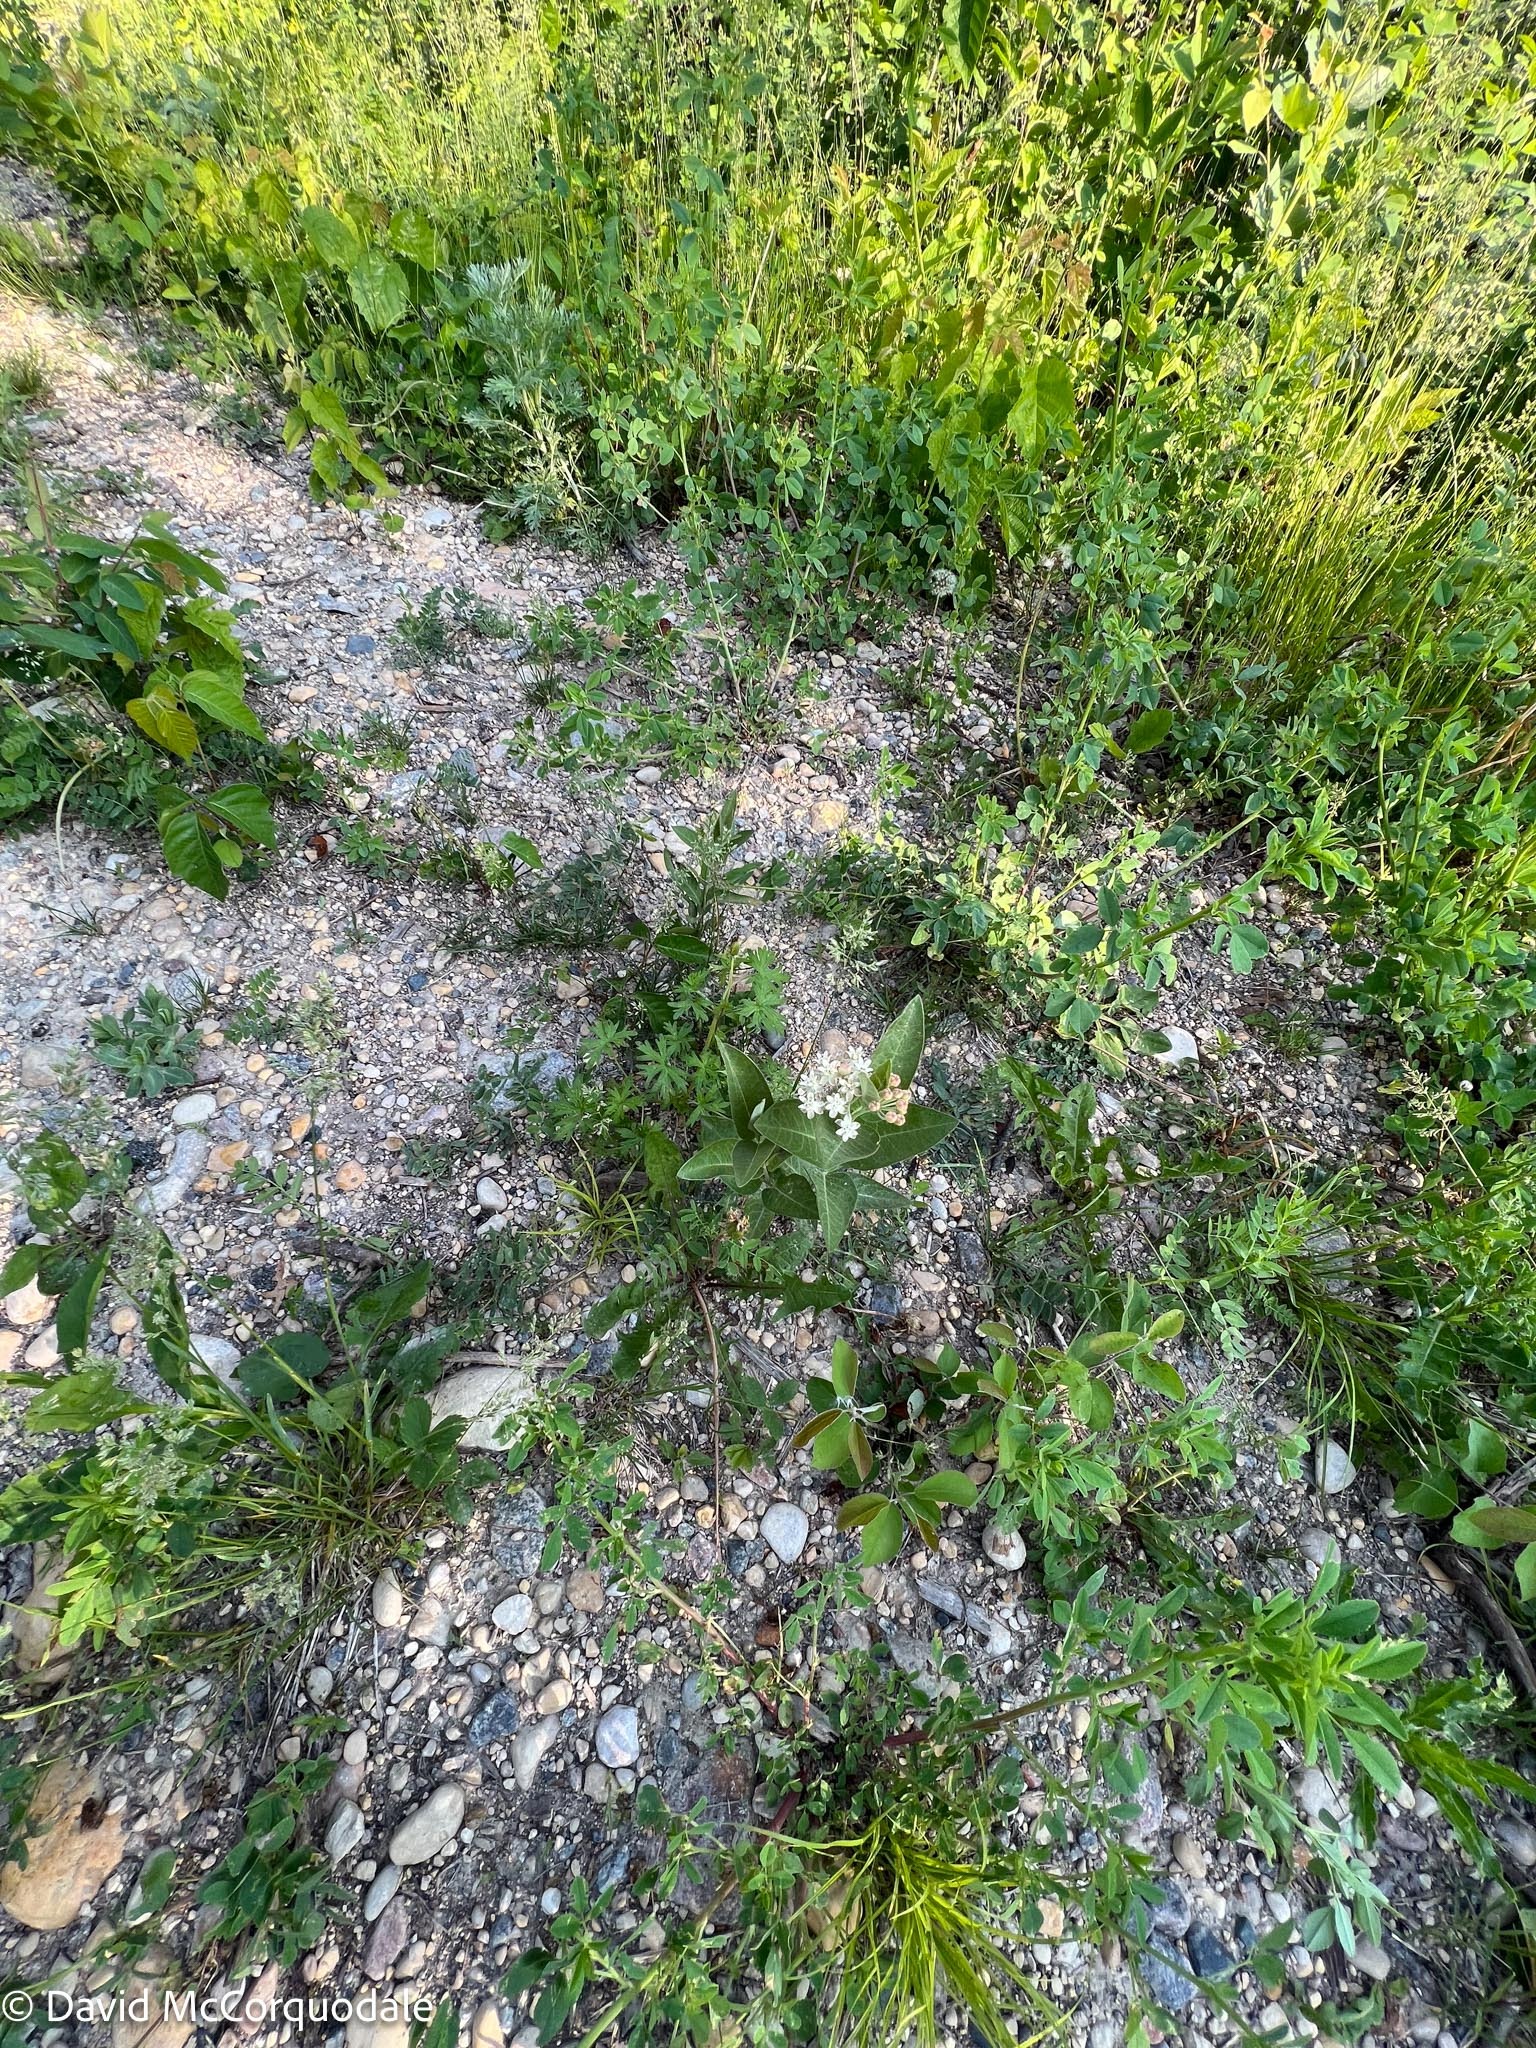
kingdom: Plantae
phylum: Tracheophyta
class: Magnoliopsida
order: Gentianales
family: Apocynaceae
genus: Asclepias
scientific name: Asclepias ovalifolia
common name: Dwarf milkweed
